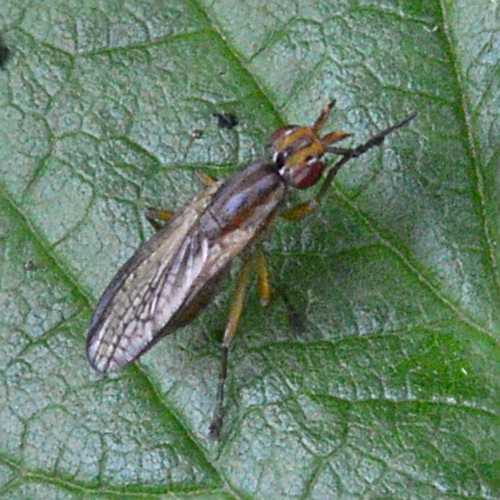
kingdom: Animalia
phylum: Arthropoda
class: Insecta
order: Diptera
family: Sciomyzidae
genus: Limnia
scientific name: Limnia paludicola
